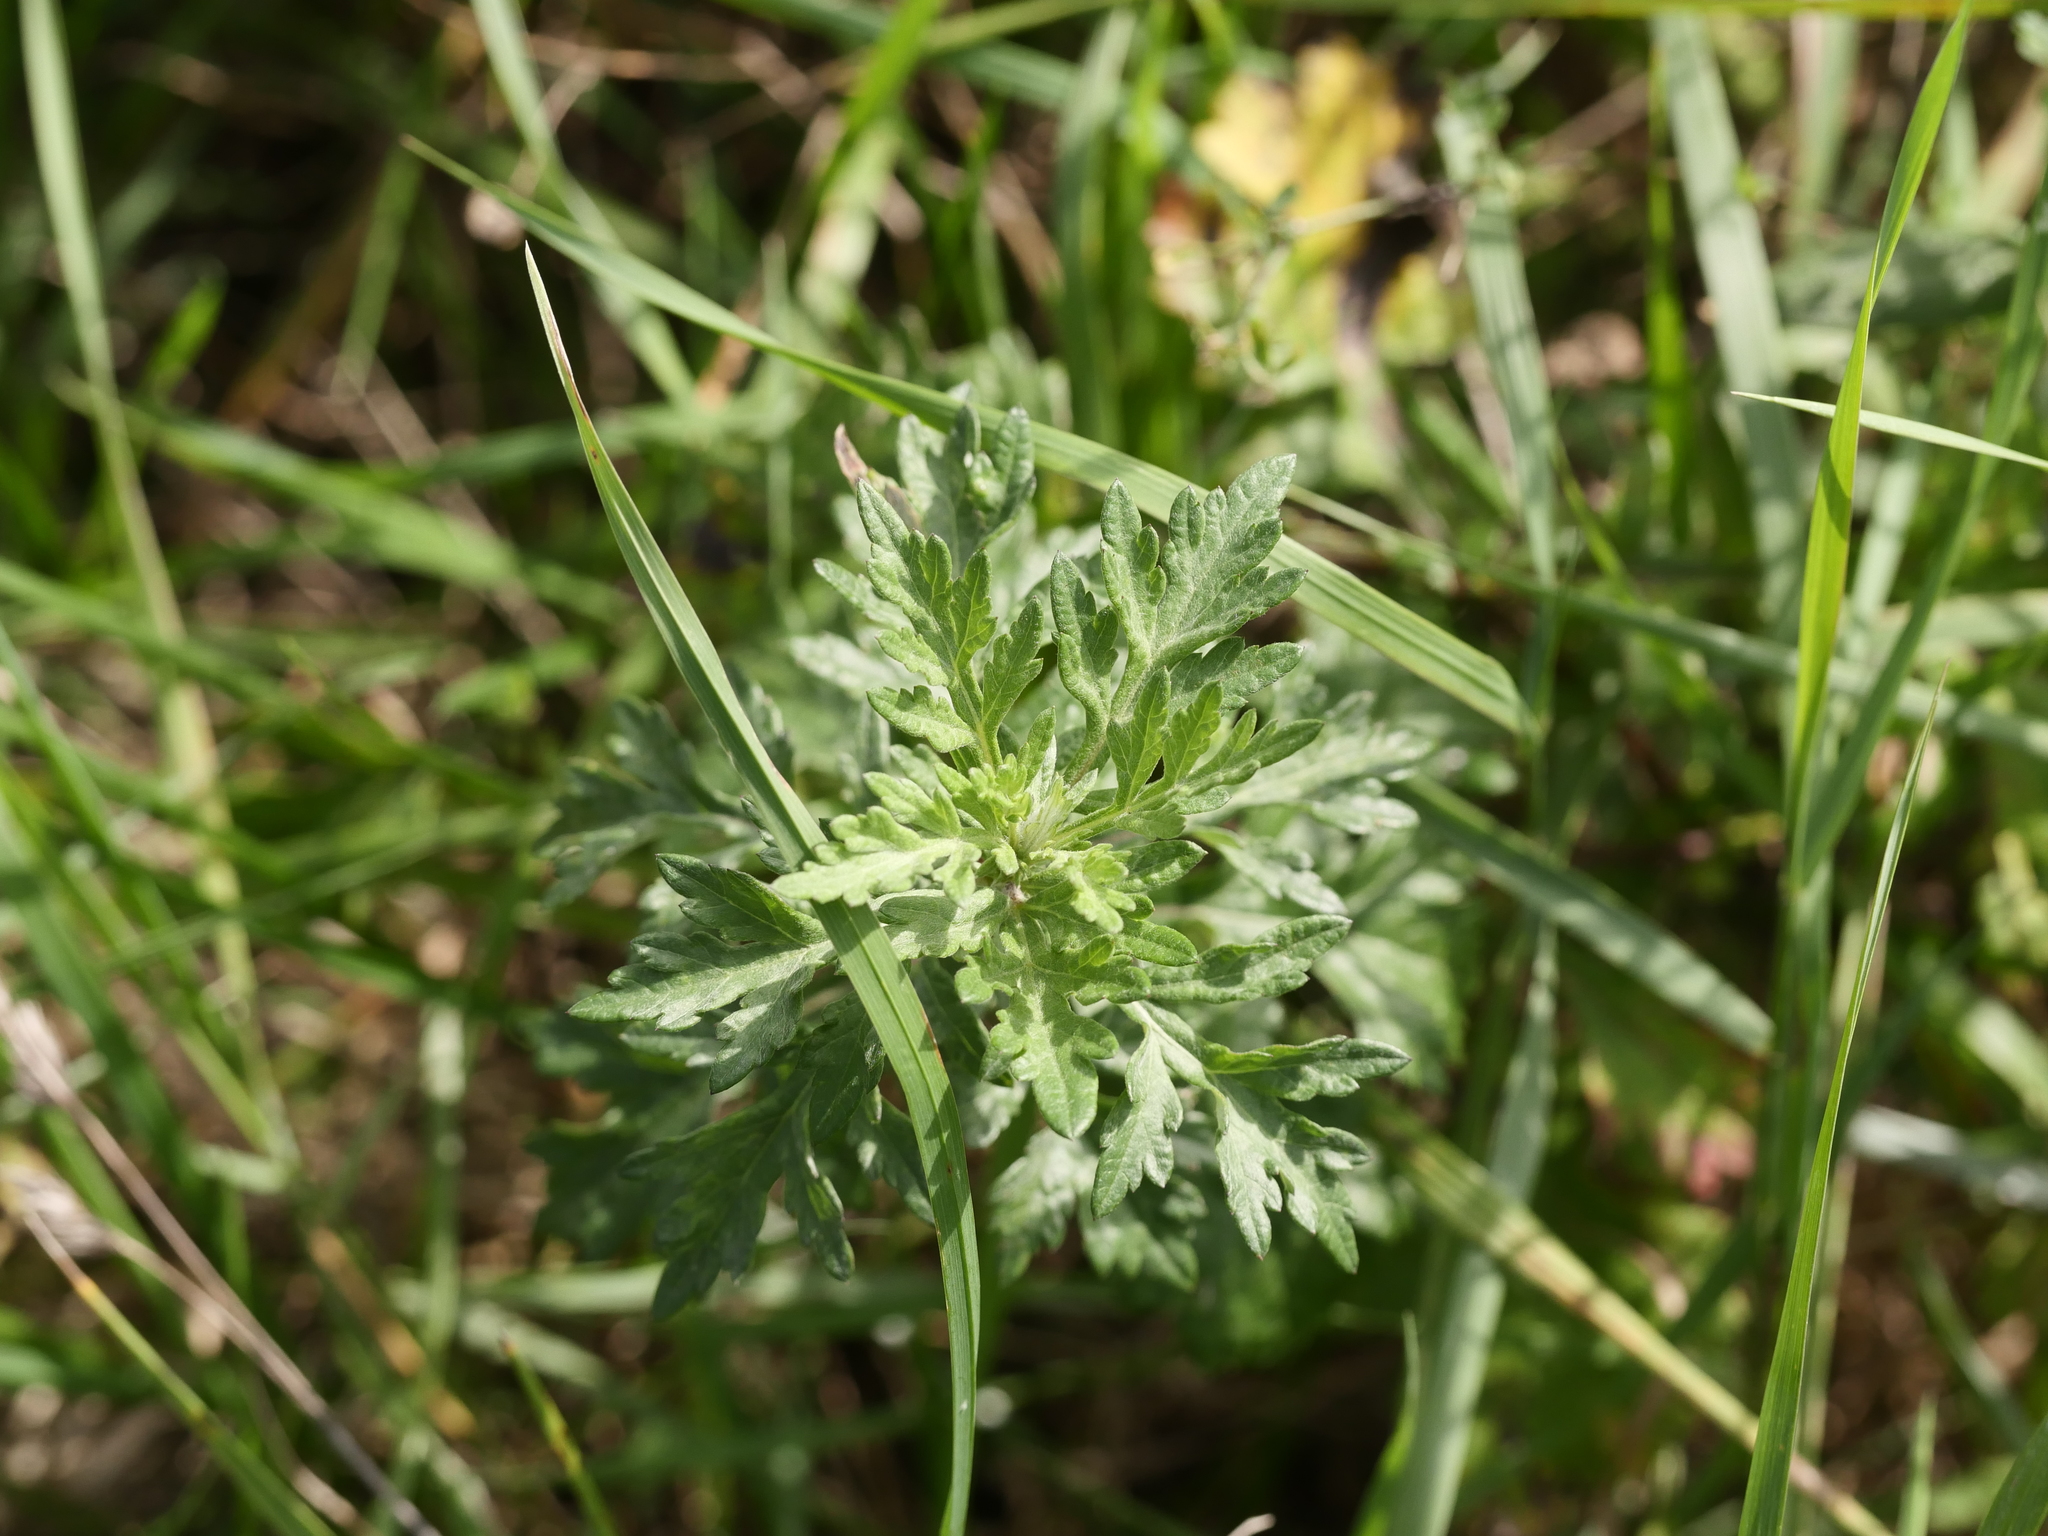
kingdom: Plantae
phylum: Tracheophyta
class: Magnoliopsida
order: Asterales
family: Asteraceae
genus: Artemisia
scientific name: Artemisia vulgaris
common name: Mugwort
